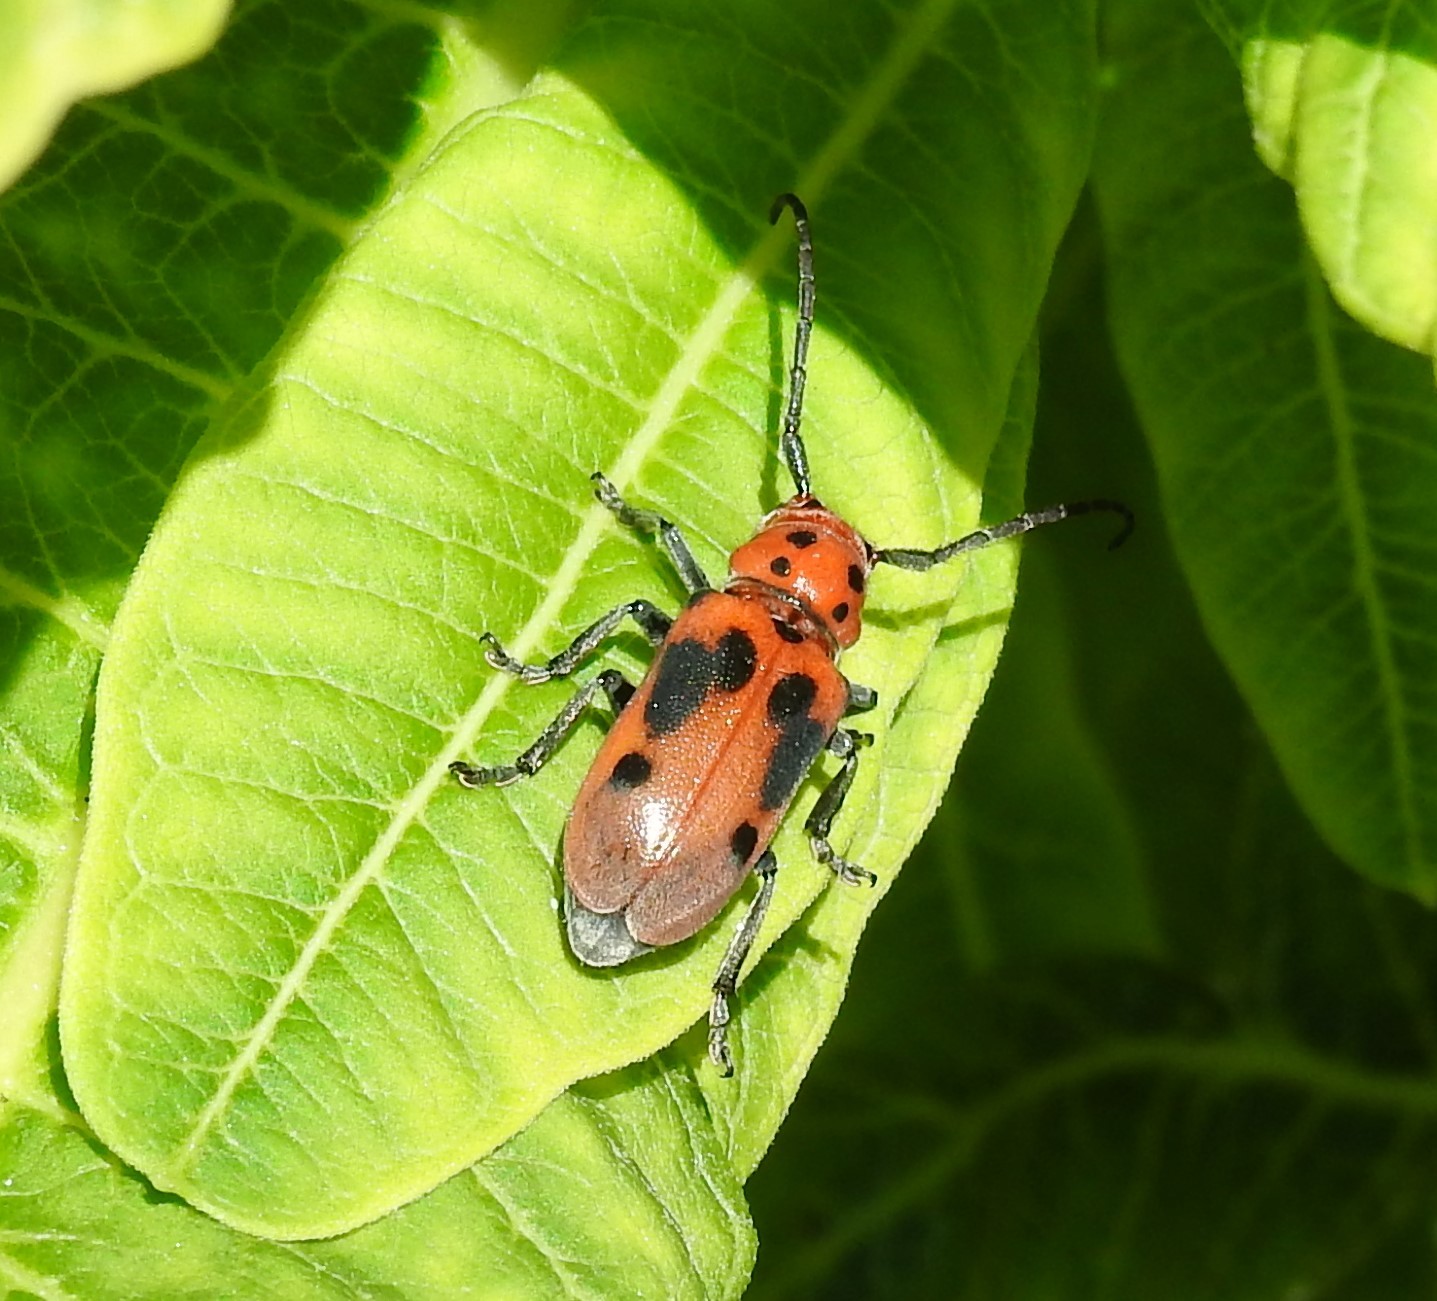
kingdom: Animalia
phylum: Arthropoda
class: Insecta
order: Coleoptera
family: Cerambycidae
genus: Tetraopes
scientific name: Tetraopes tetrophthalmus
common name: Red milkweed beetle
